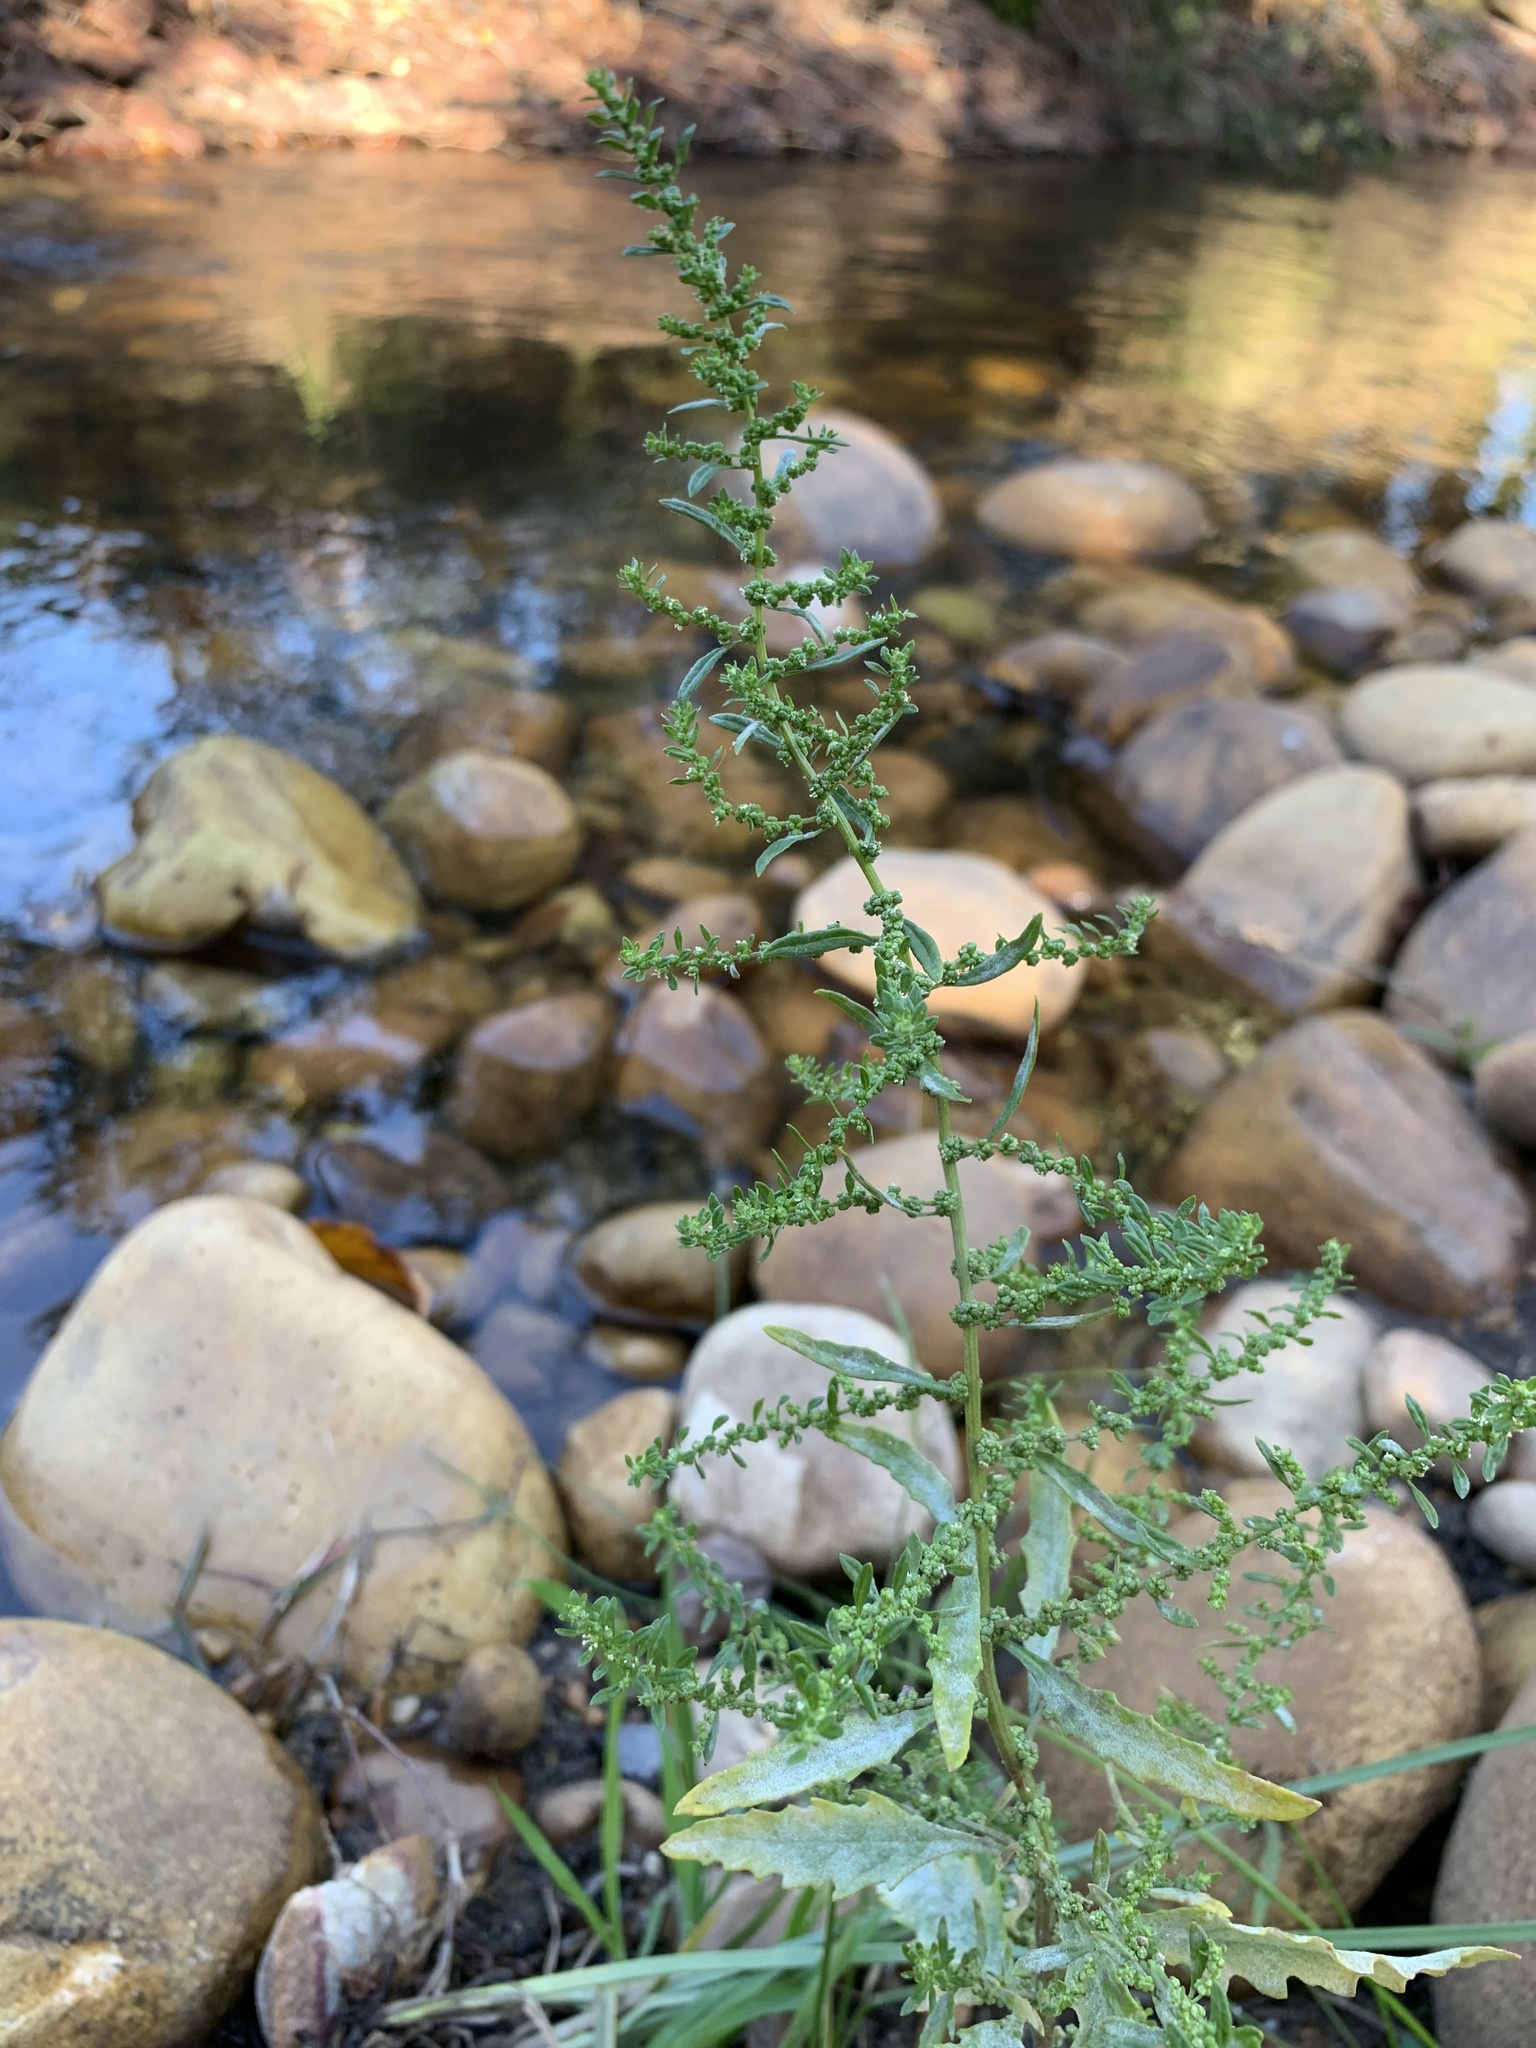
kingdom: Plantae
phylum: Tracheophyta
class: Magnoliopsida
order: Caryophyllales
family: Amaranthaceae
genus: Dysphania
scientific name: Dysphania ambrosioides
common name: Wormseed
